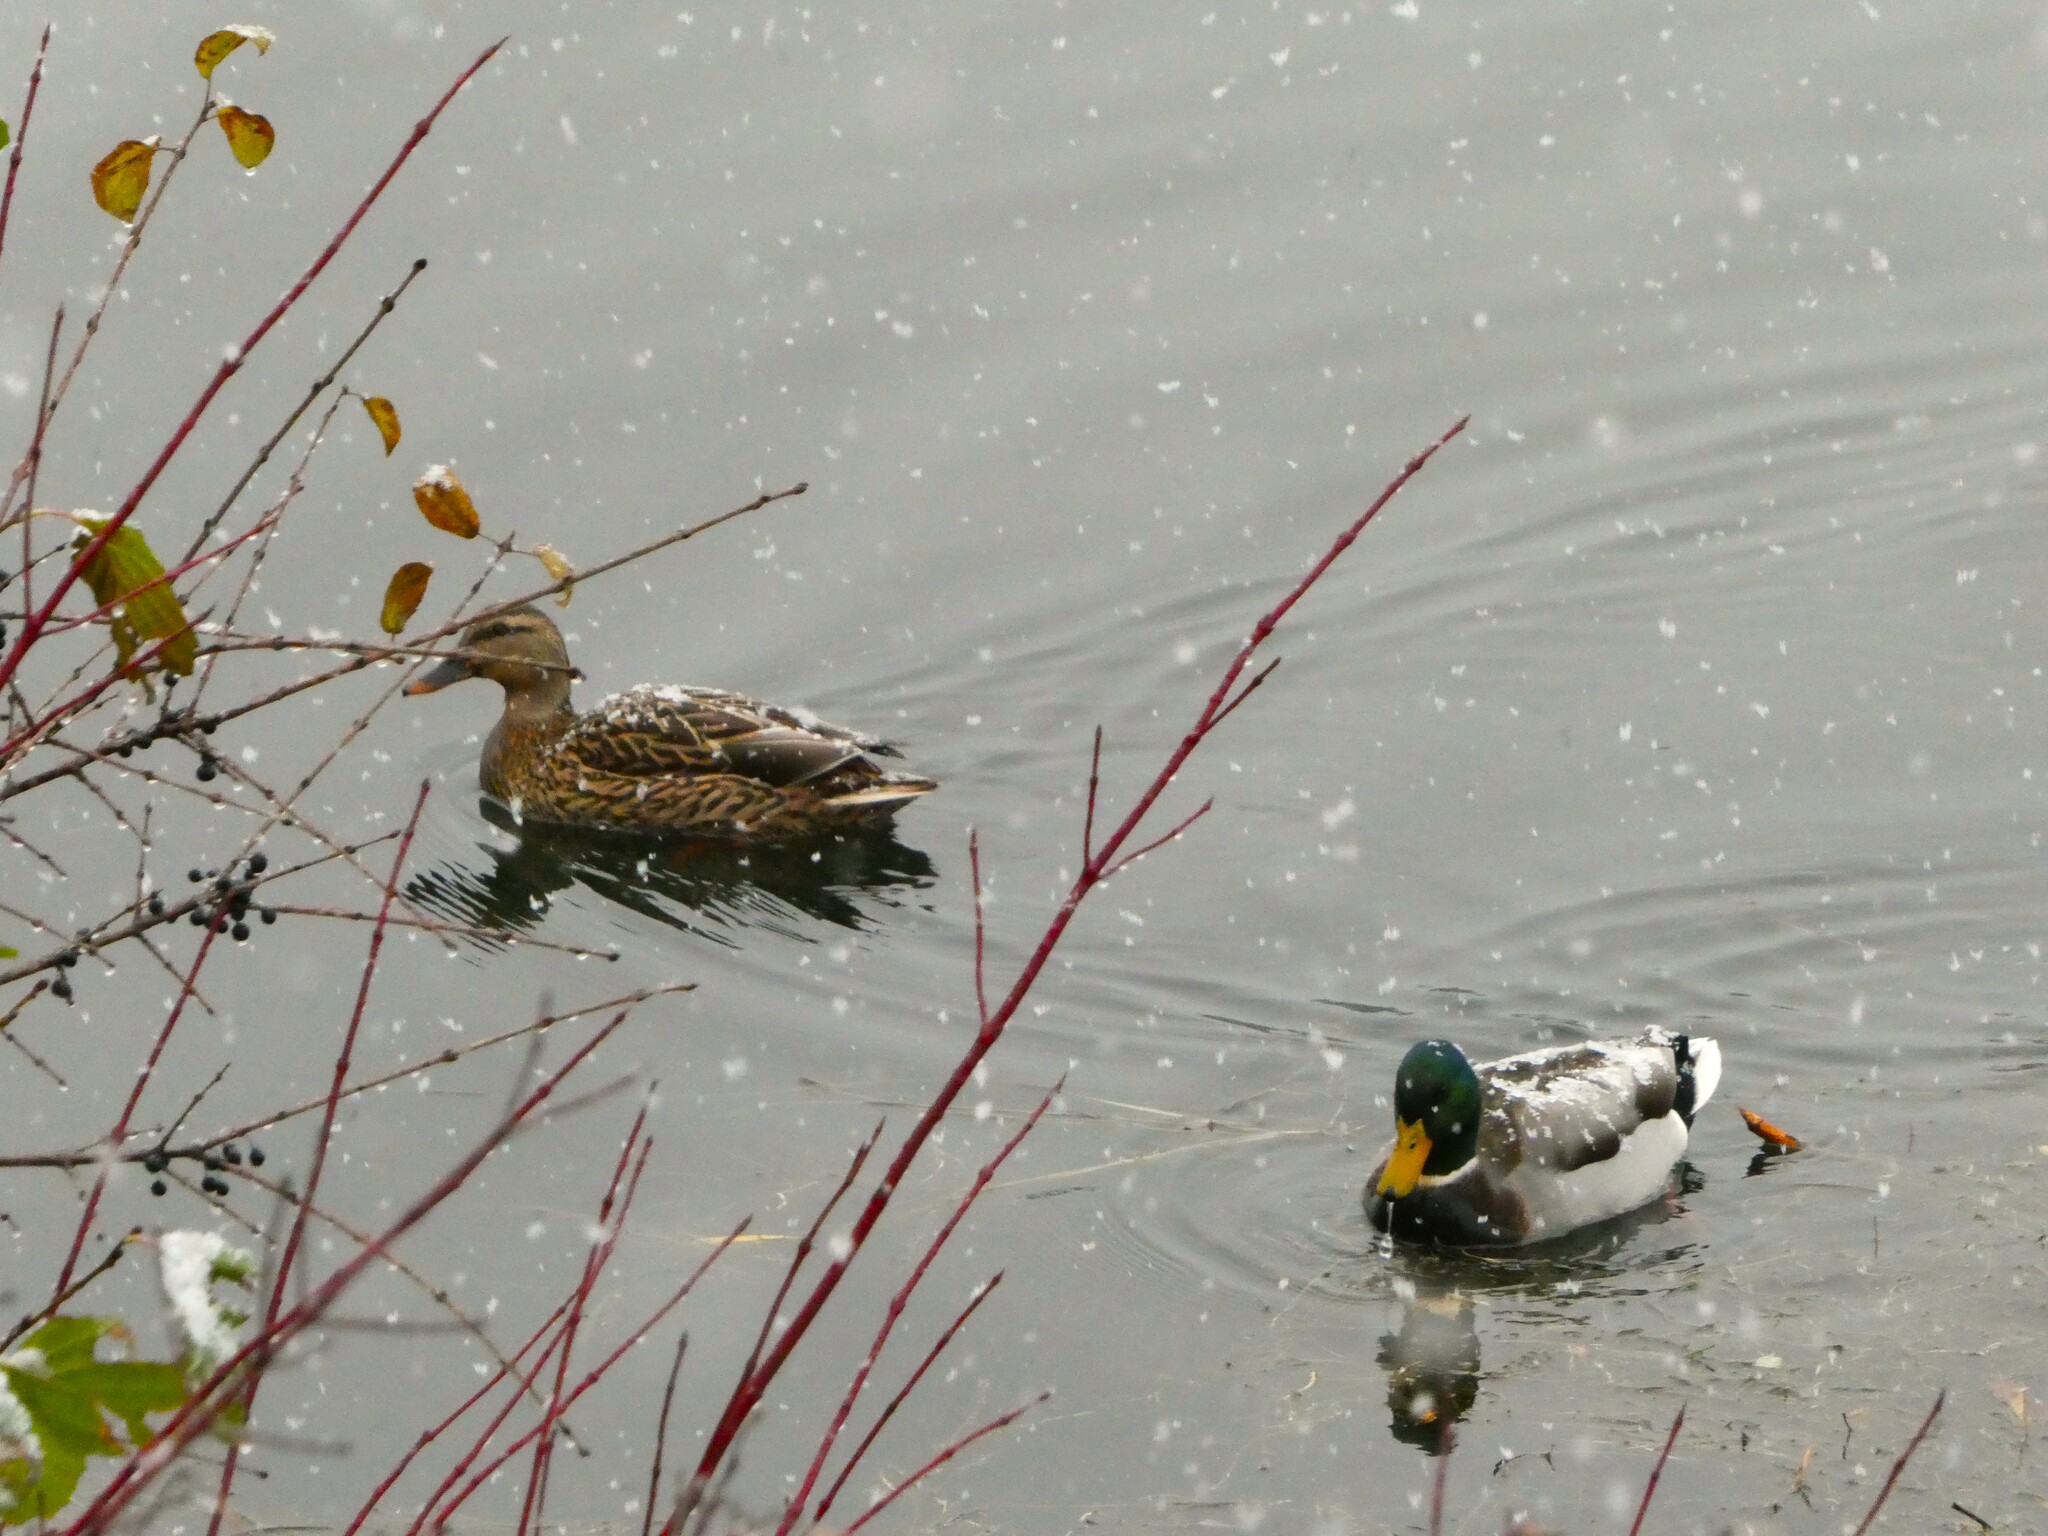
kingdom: Animalia
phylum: Chordata
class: Aves
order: Anseriformes
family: Anatidae
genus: Anas
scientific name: Anas platyrhynchos
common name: Mallard
